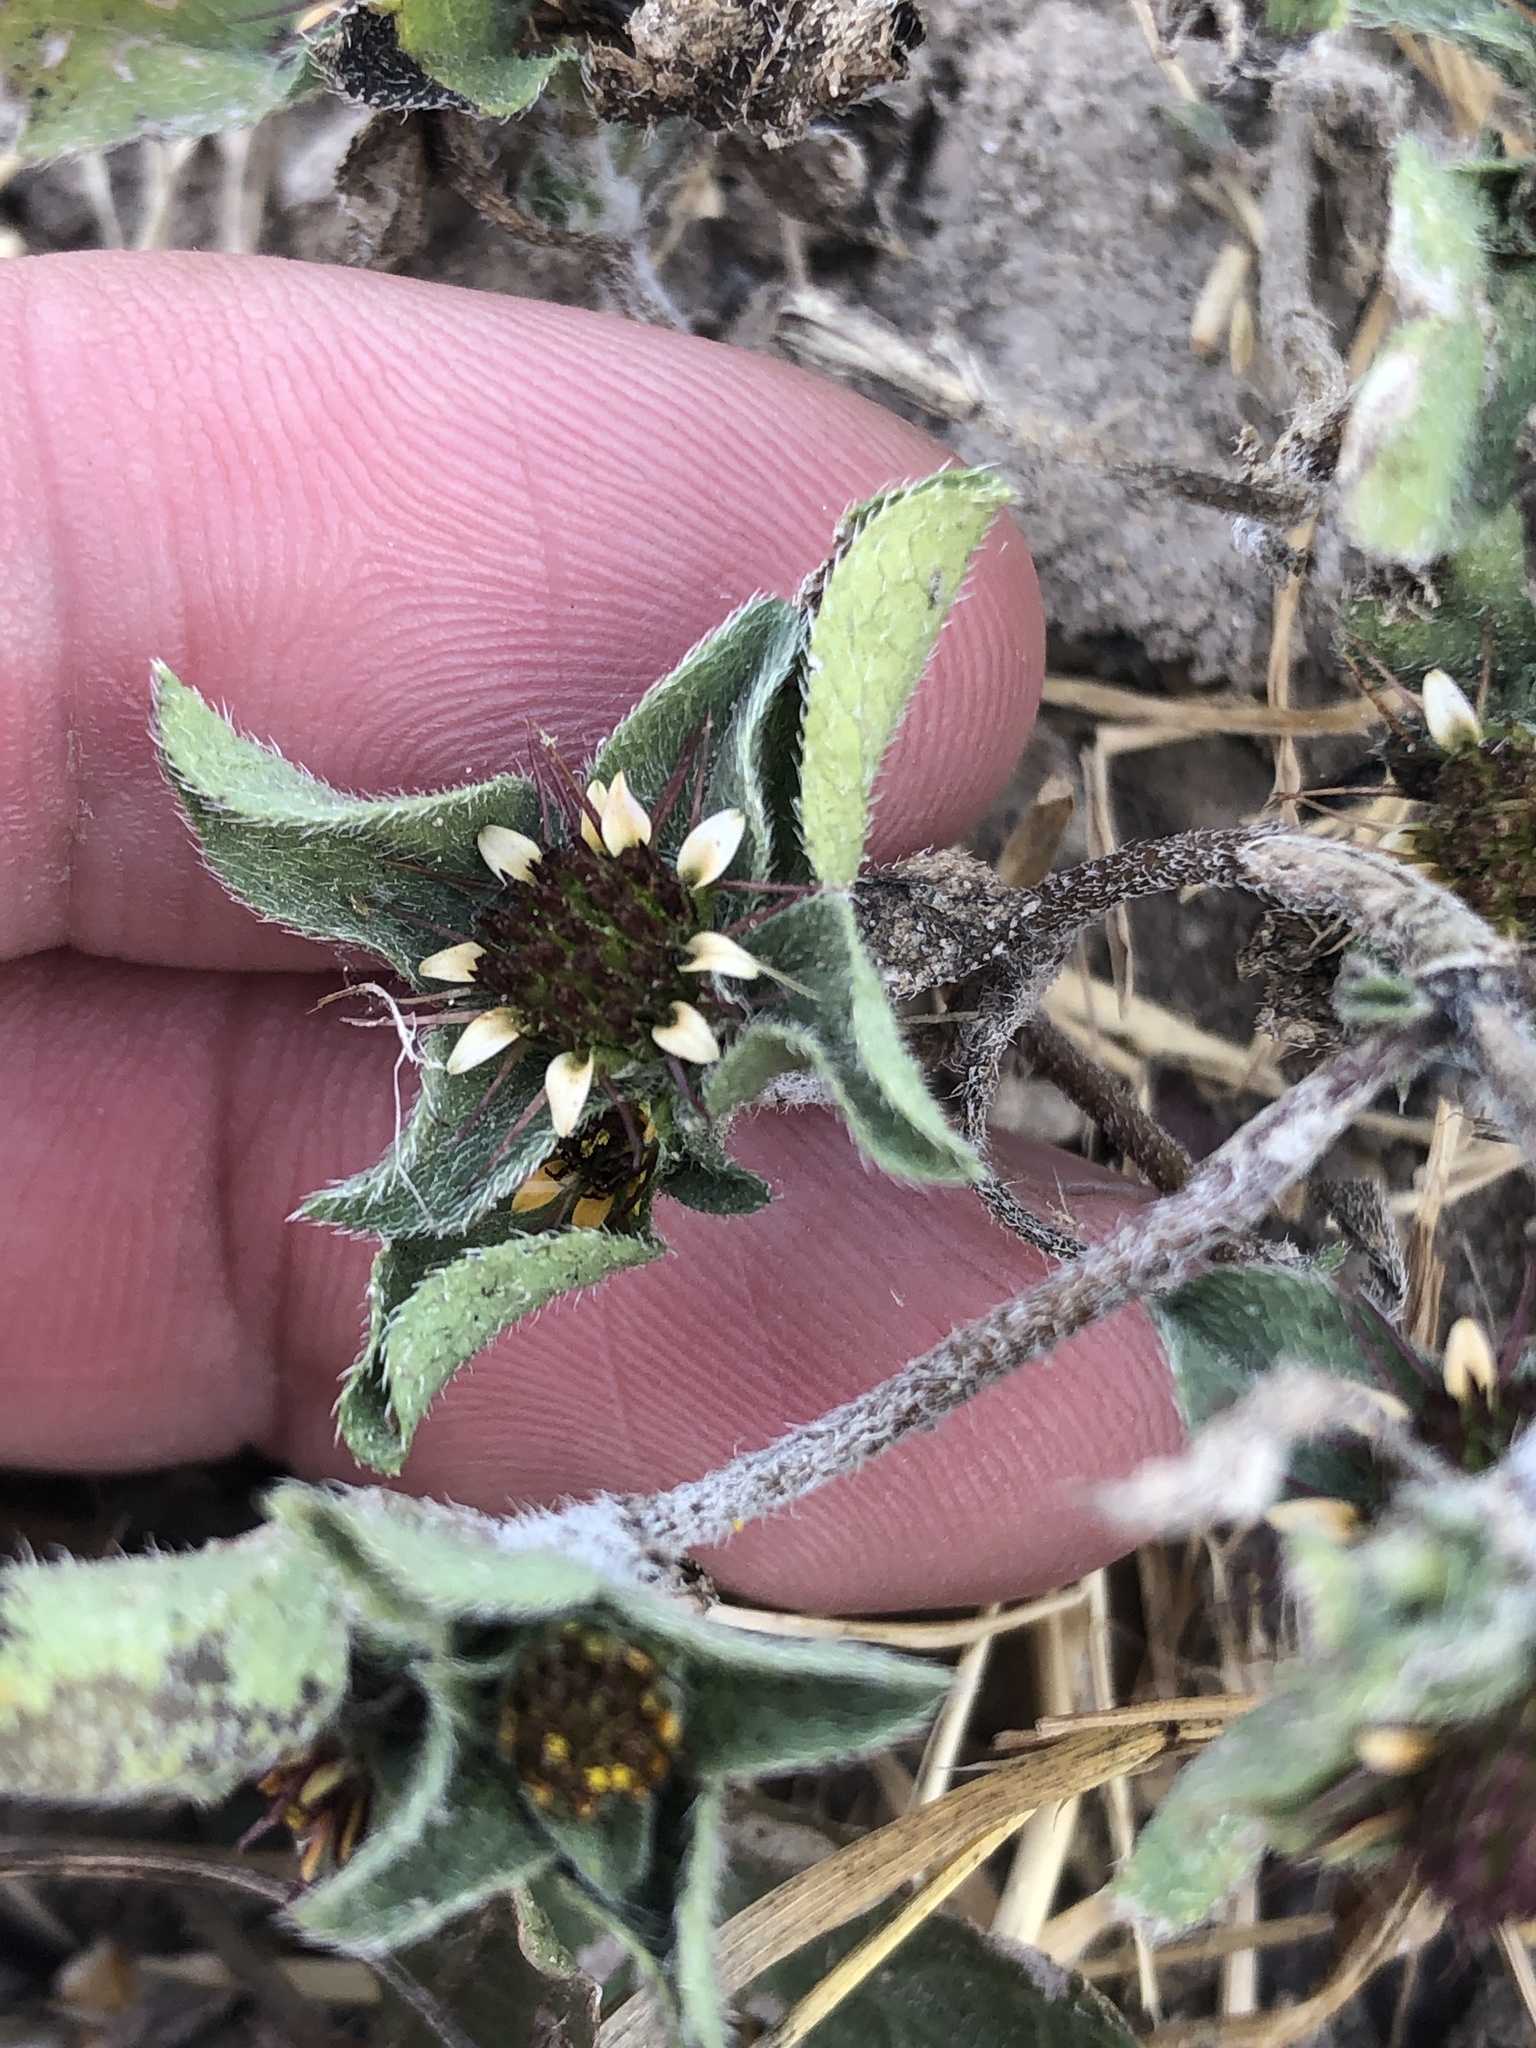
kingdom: Plantae
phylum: Tracheophyta
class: Magnoliopsida
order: Asterales
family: Asteraceae
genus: Sanvitalia
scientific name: Sanvitalia ocymoides
